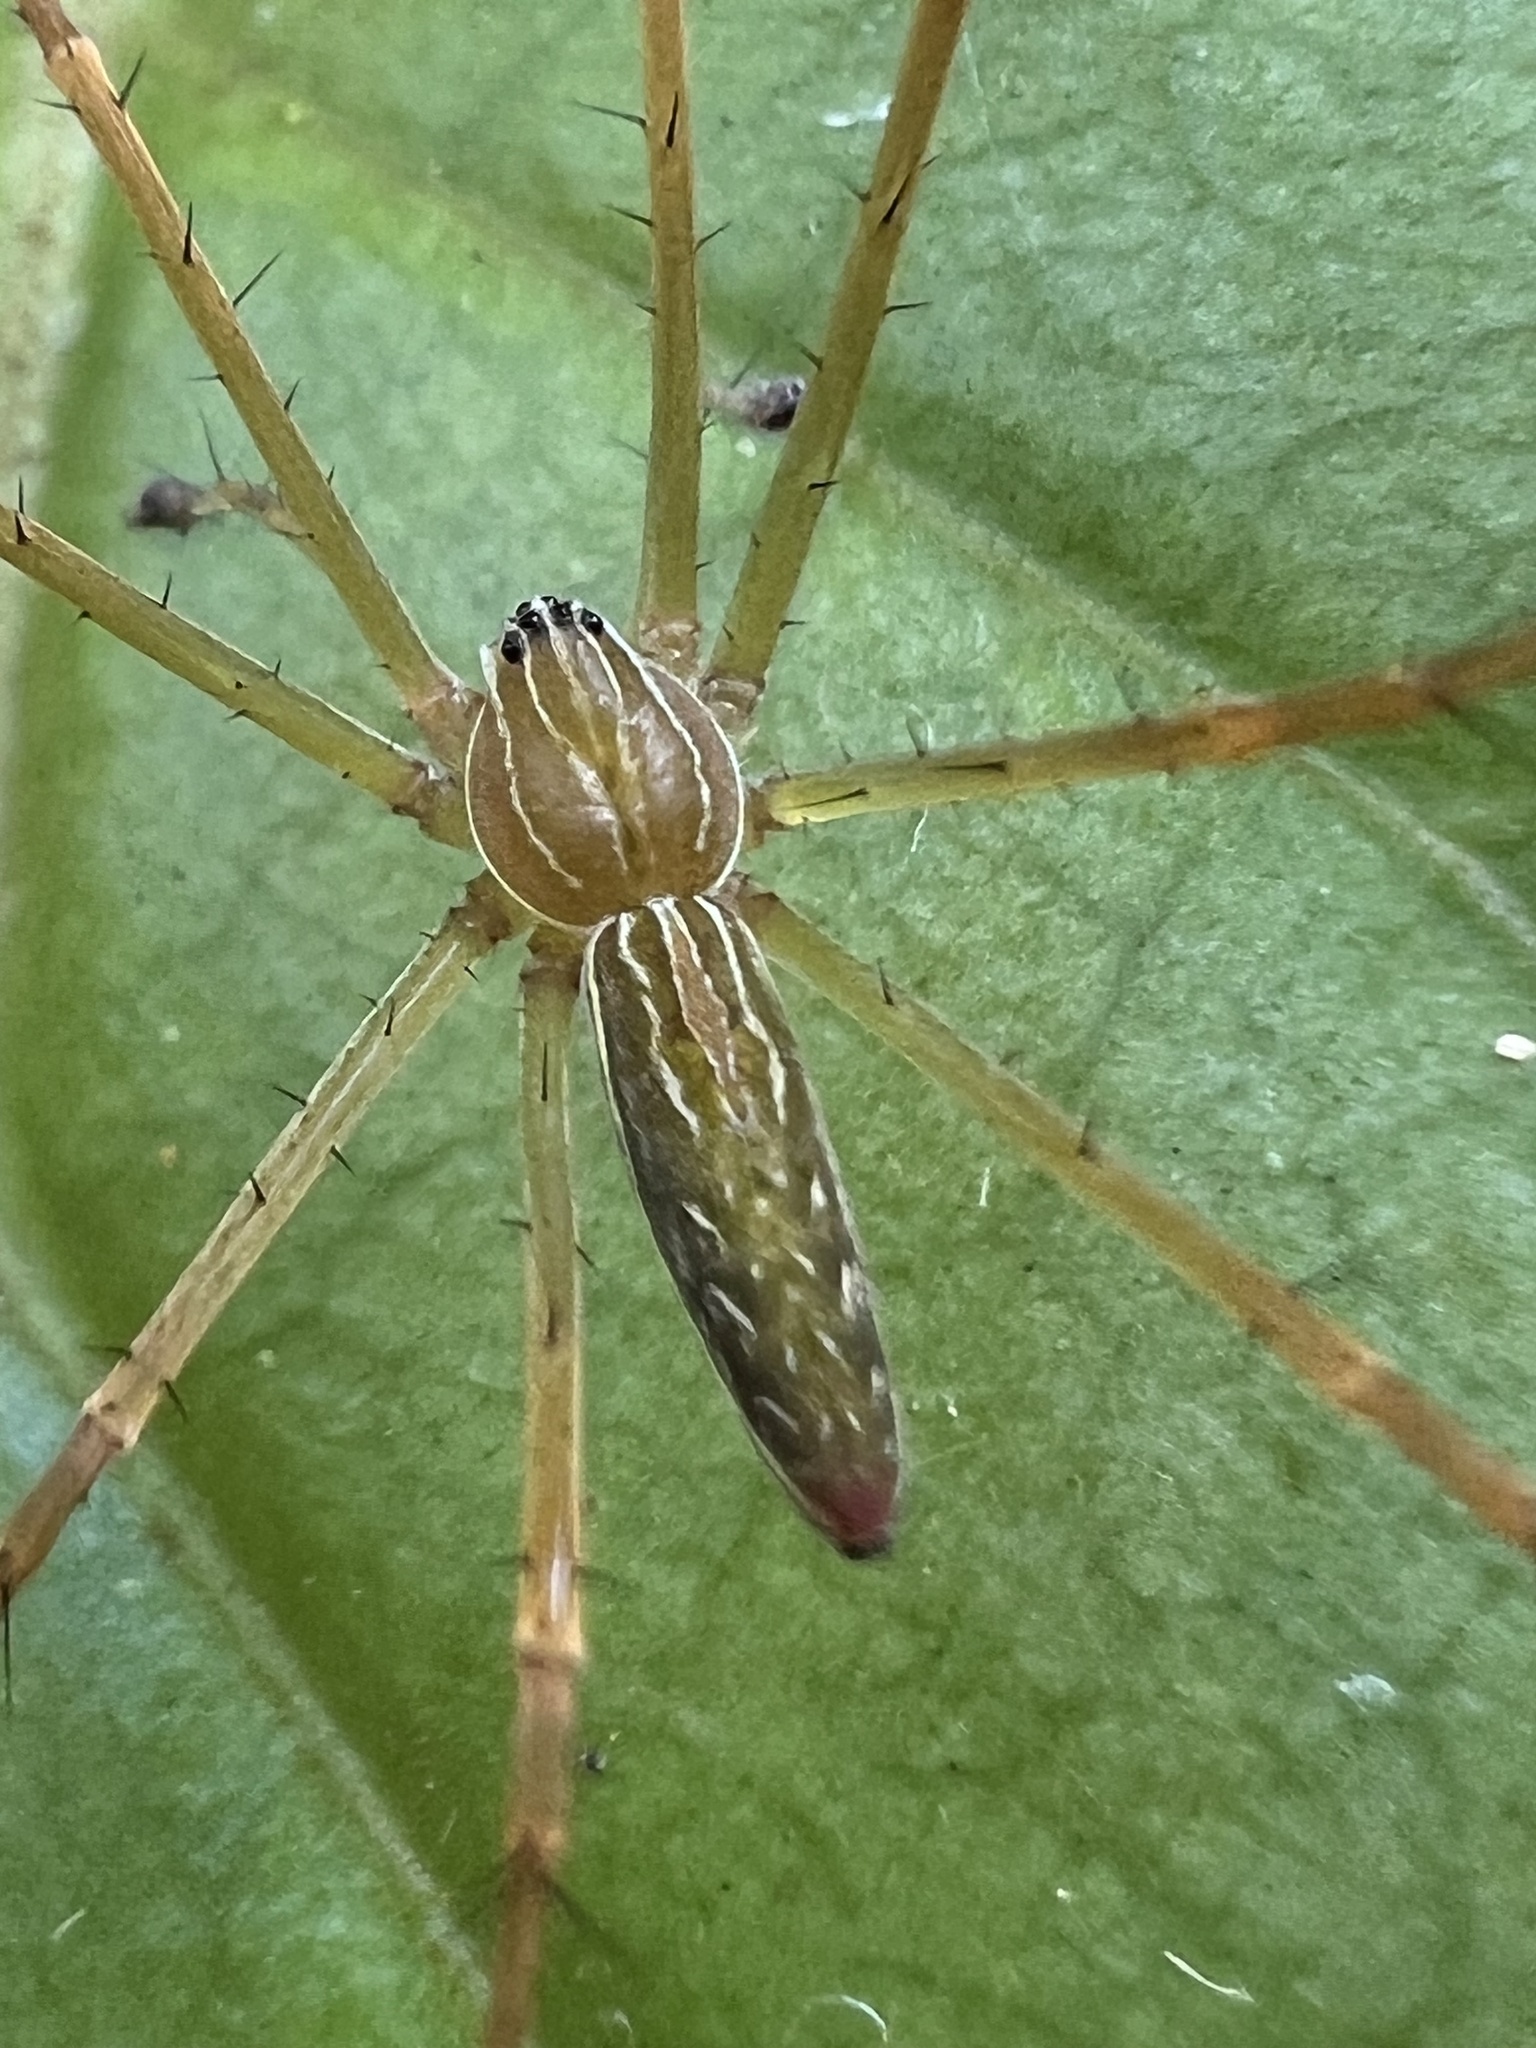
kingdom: Animalia
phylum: Arthropoda
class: Arachnida
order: Araneae
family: Pisauridae
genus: Hygropoda
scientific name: Hygropoda lineata
